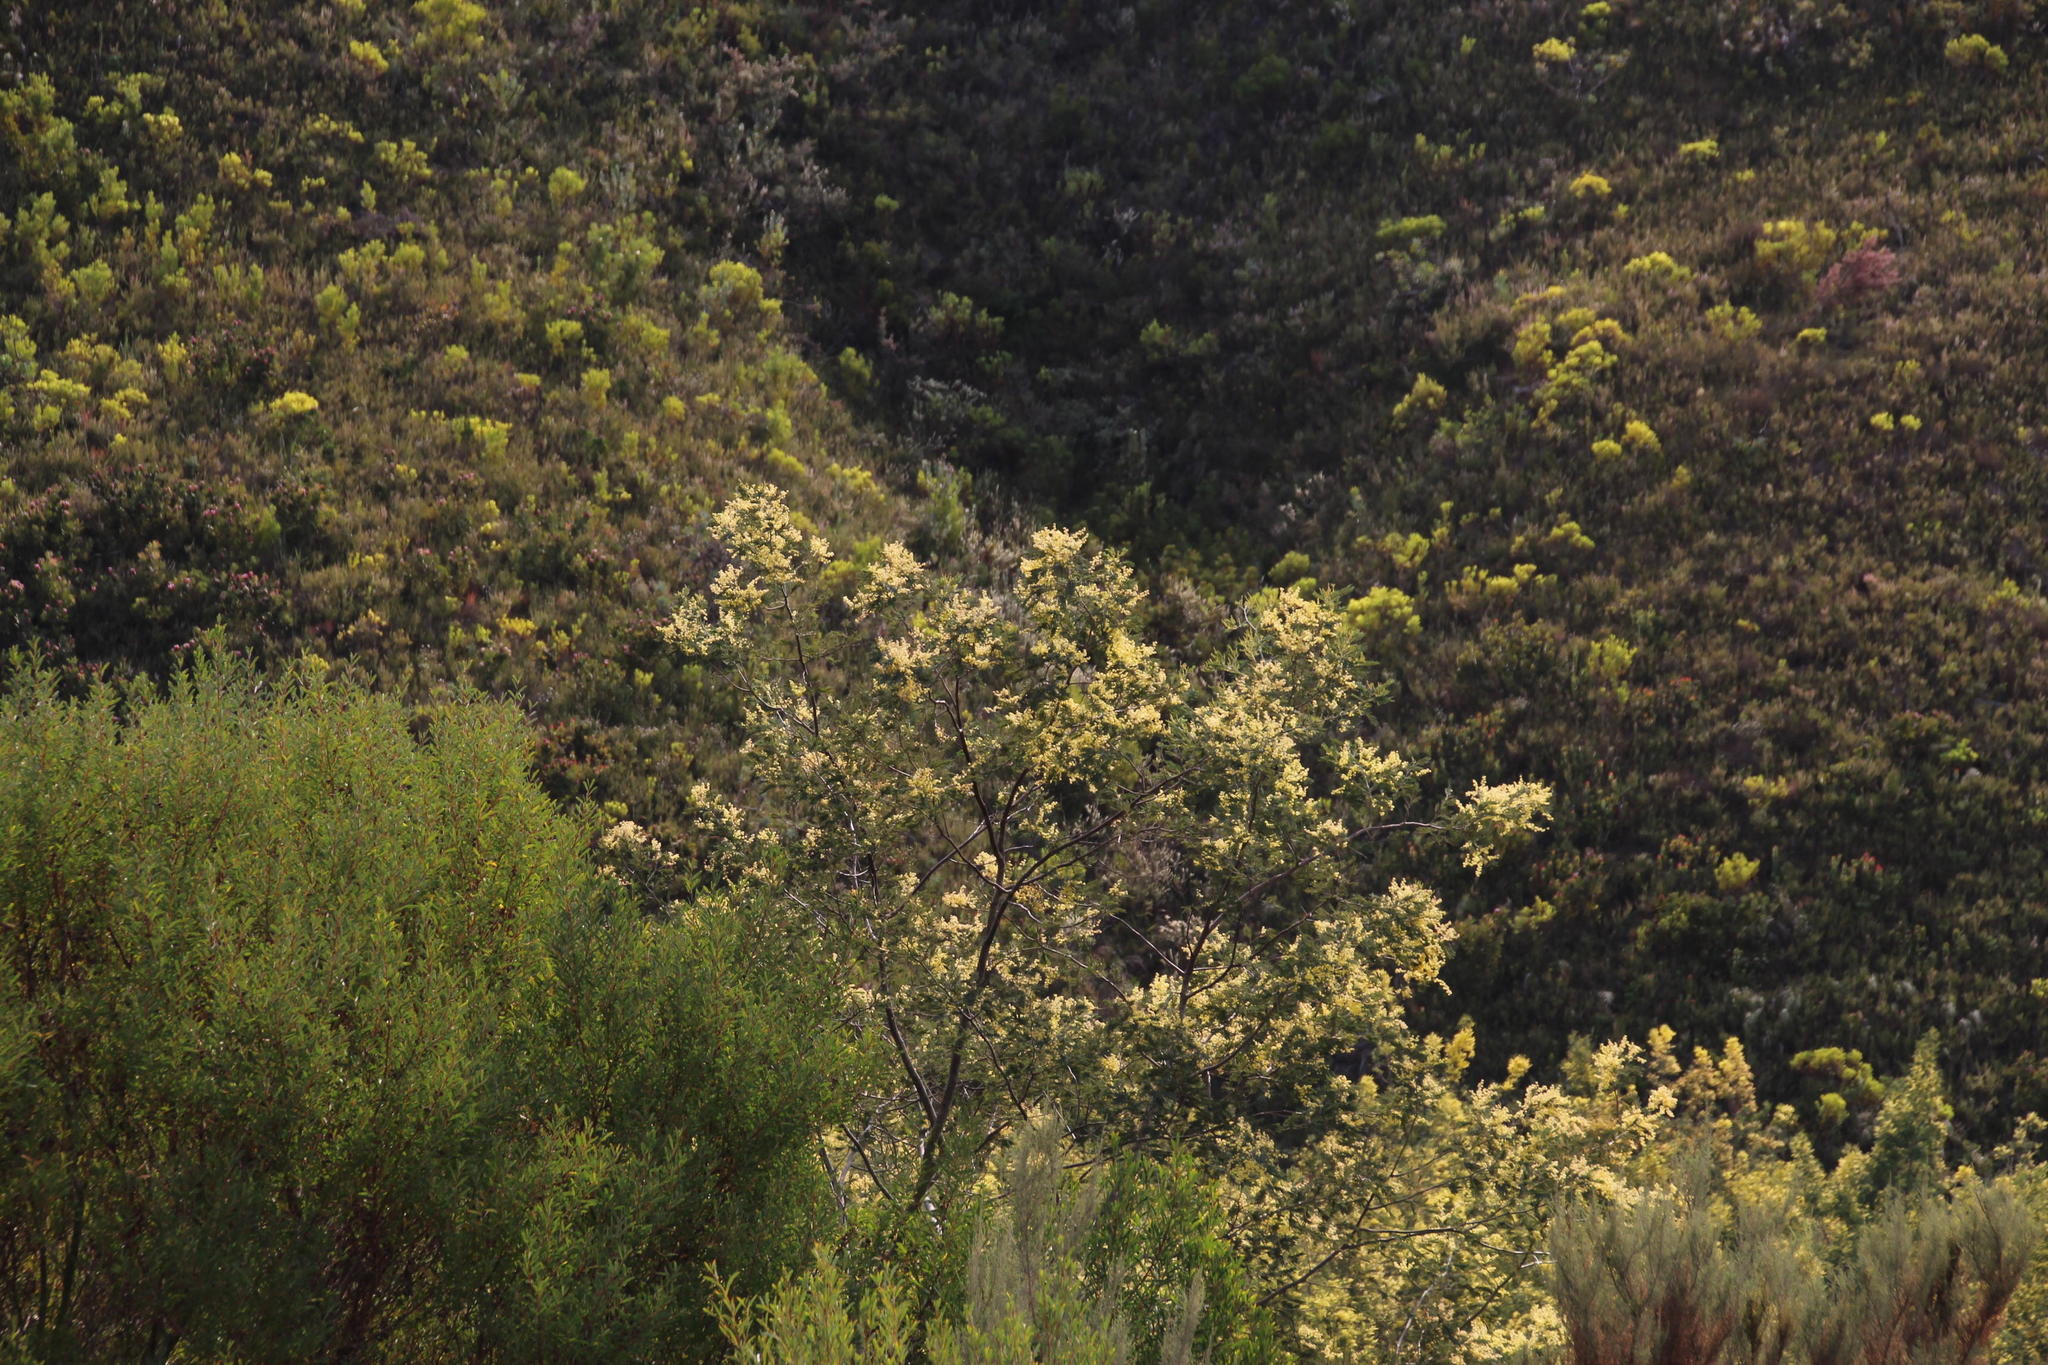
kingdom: Plantae
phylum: Tracheophyta
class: Magnoliopsida
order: Fabales
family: Fabaceae
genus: Acacia
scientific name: Acacia mearnsii
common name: Black wattle
